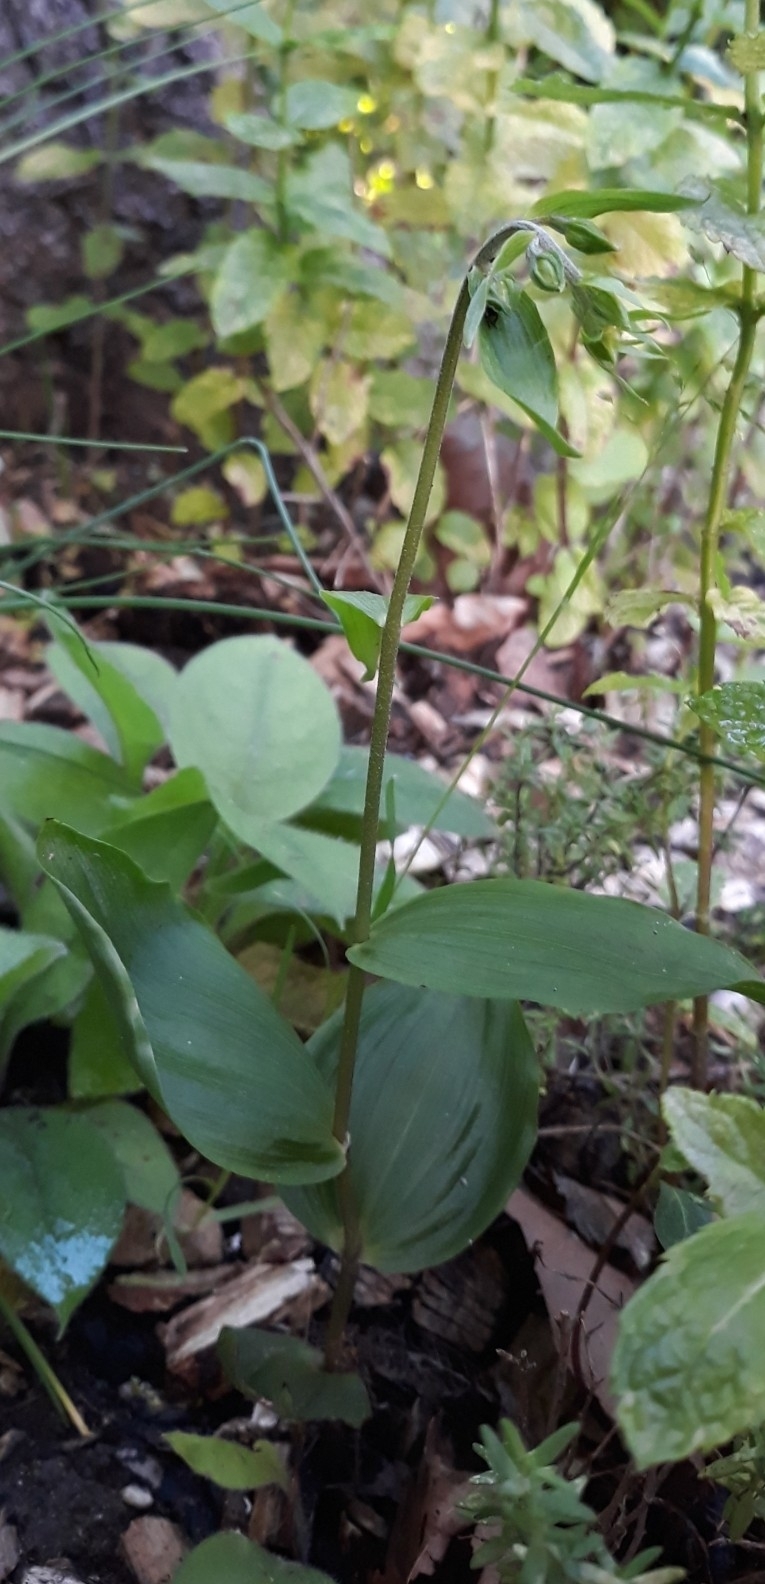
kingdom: Plantae
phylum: Tracheophyta
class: Liliopsida
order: Asparagales
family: Orchidaceae
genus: Epipactis
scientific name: Epipactis helleborine
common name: Broad-leaved helleborine
